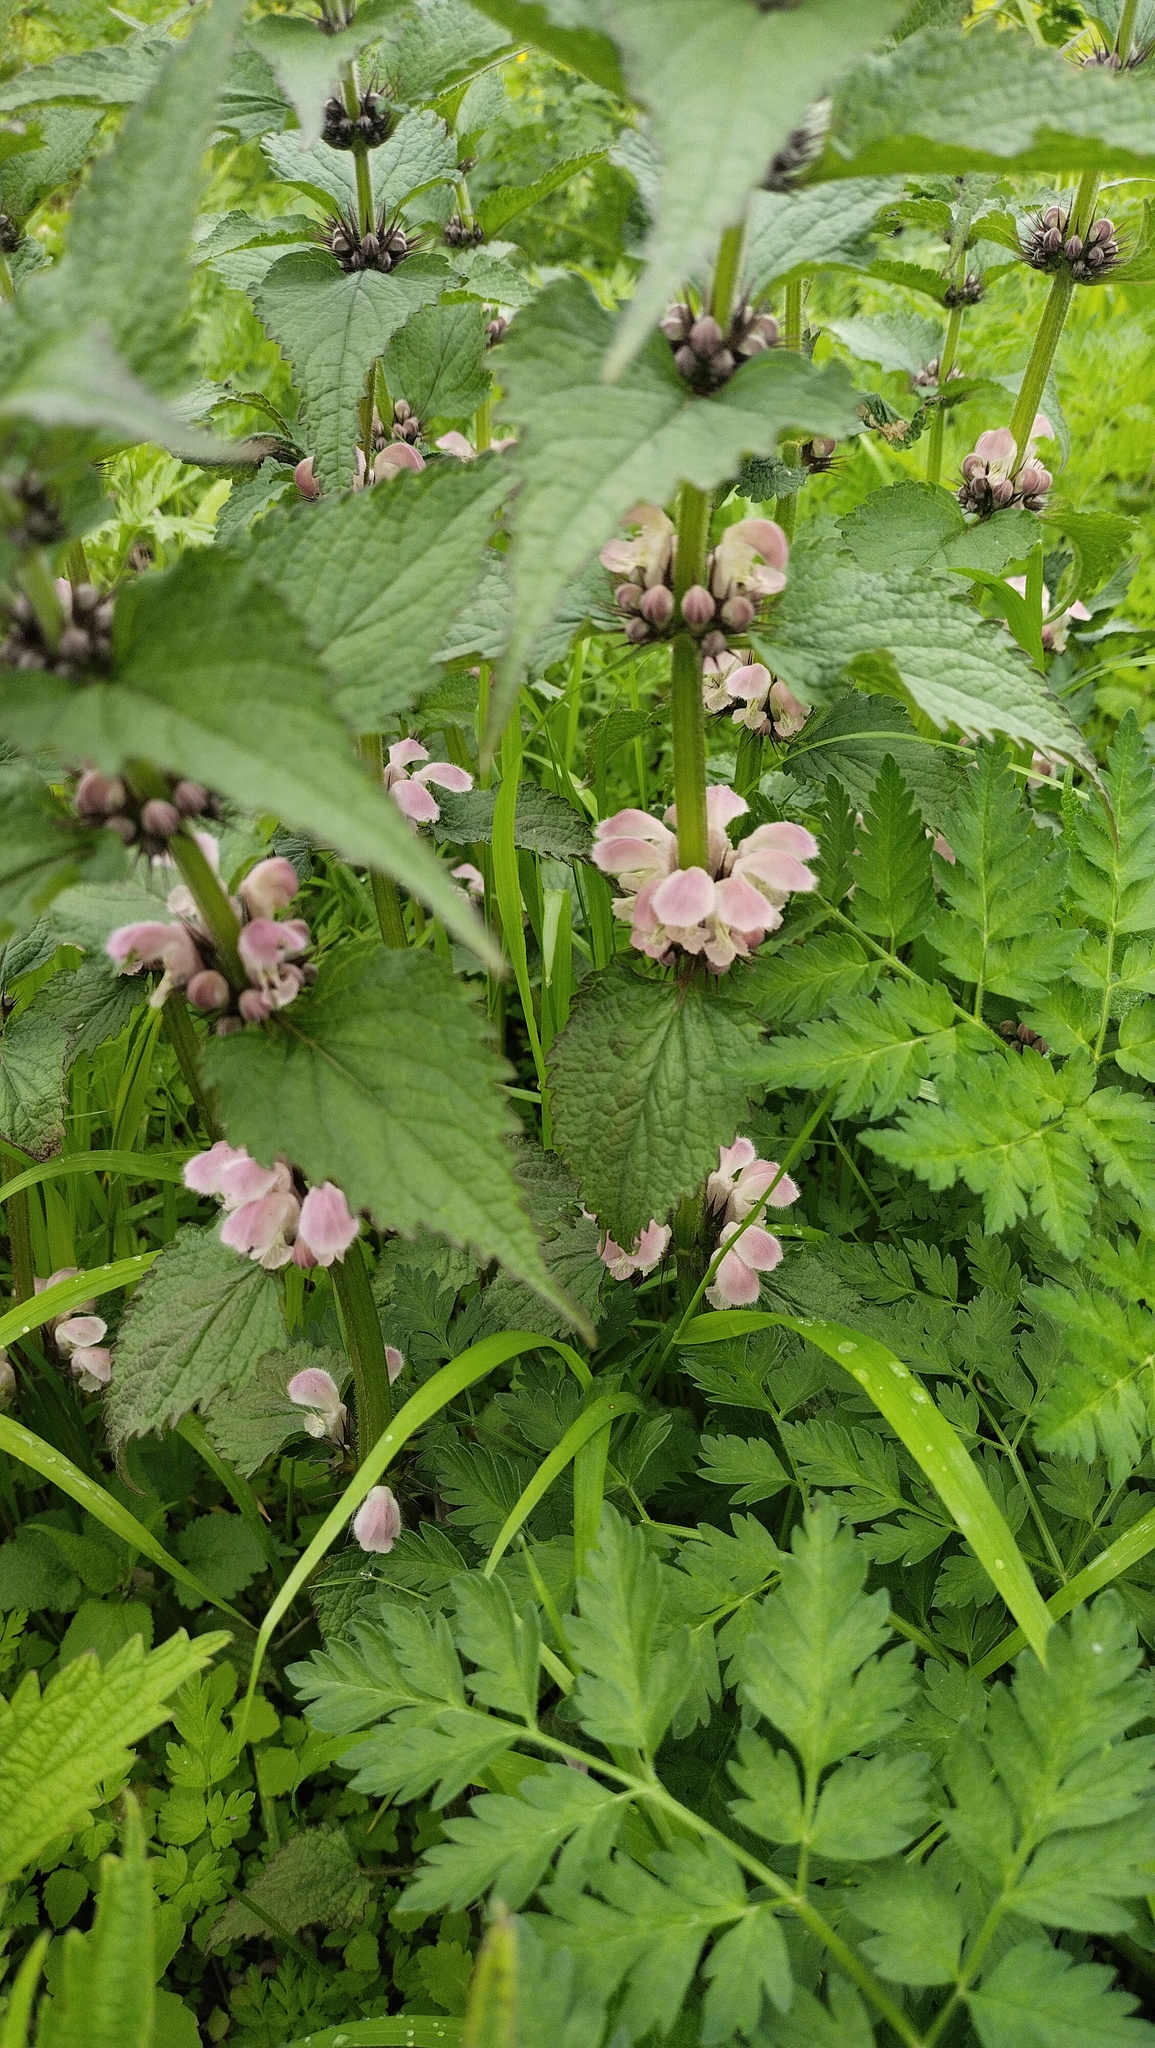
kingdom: Plantae
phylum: Tracheophyta
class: Magnoliopsida
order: Lamiales
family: Lamiaceae
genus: Lamium
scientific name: Lamium album
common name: White dead-nettle
